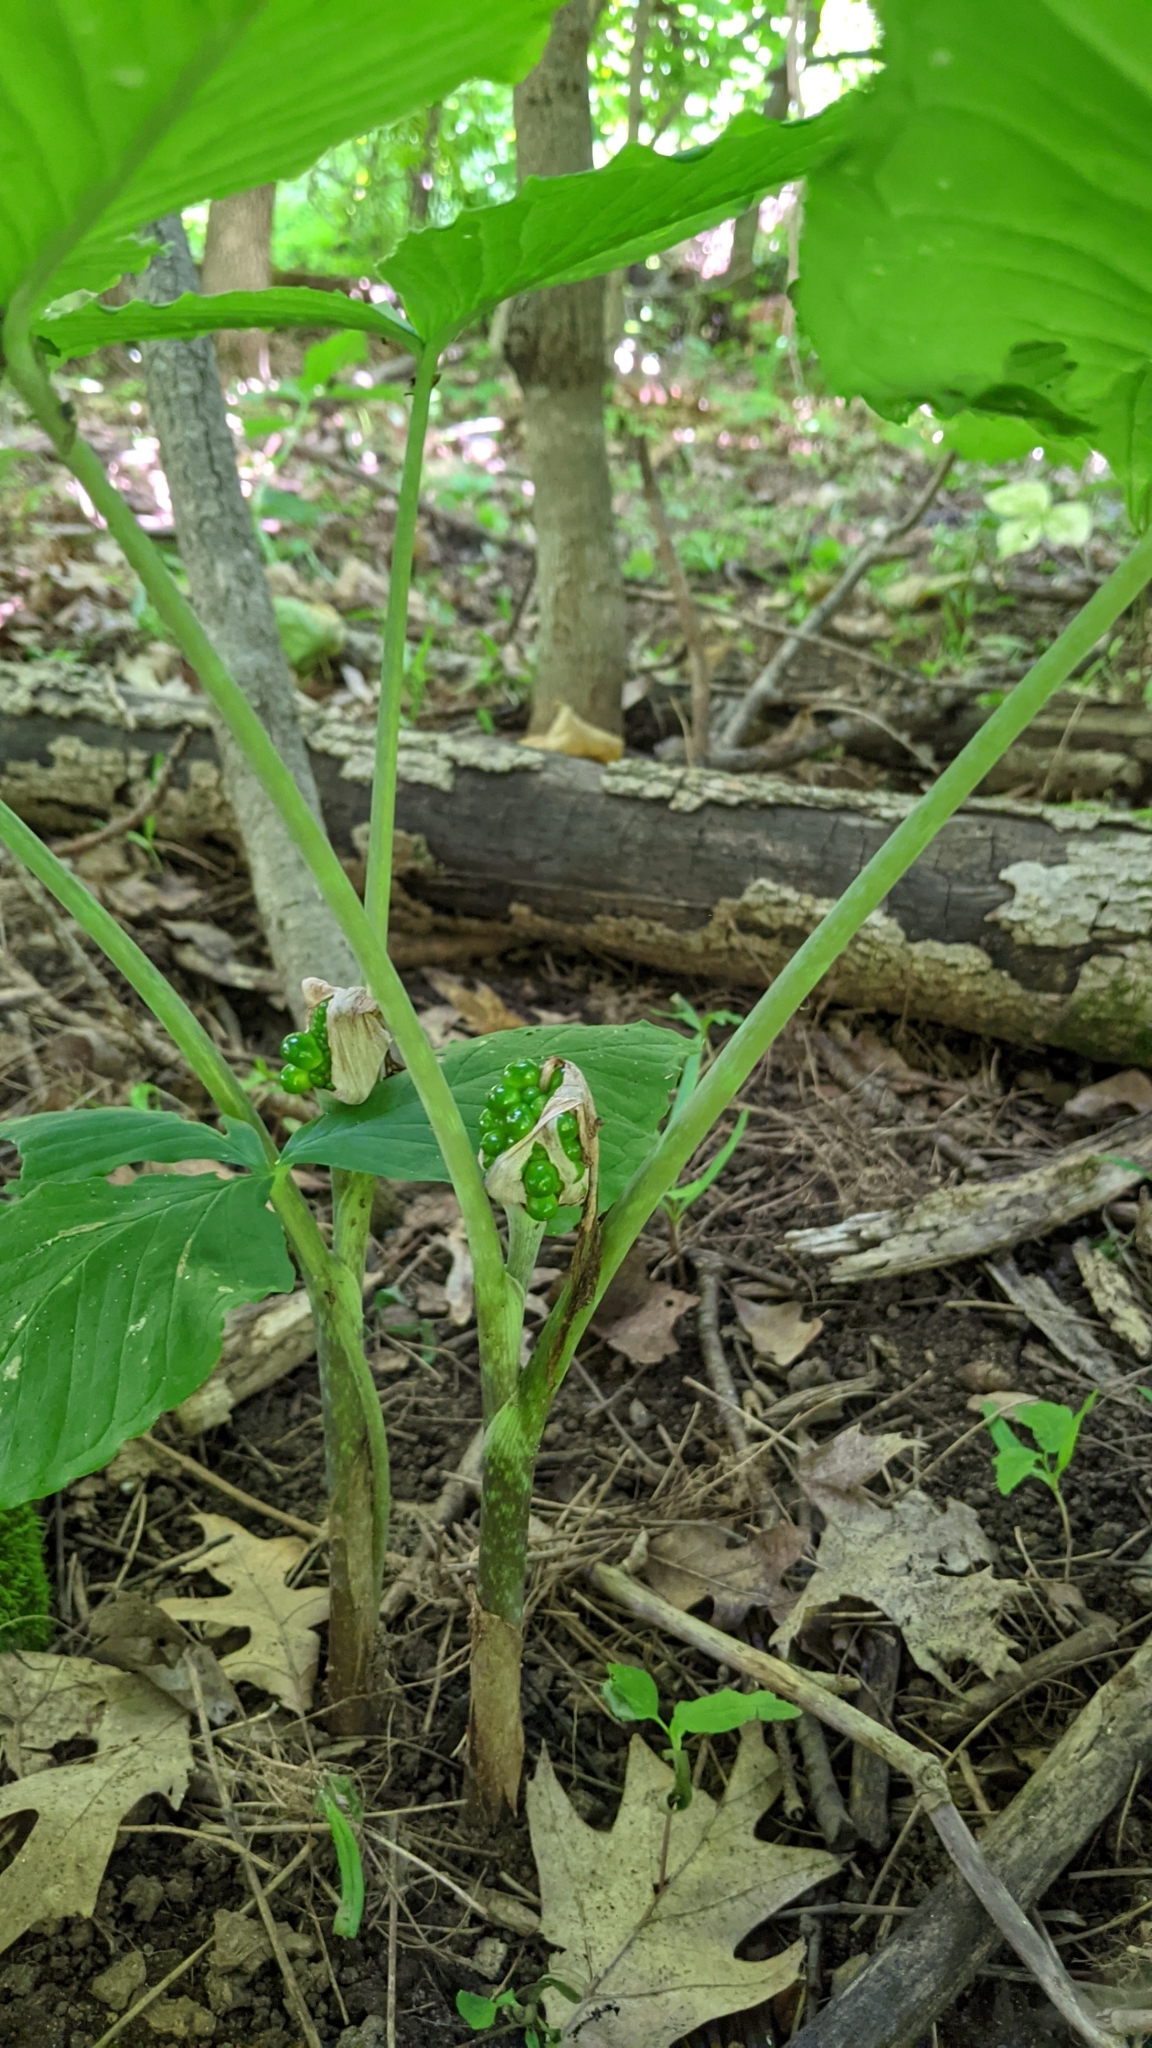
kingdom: Plantae
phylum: Tracheophyta
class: Liliopsida
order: Alismatales
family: Araceae
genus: Arisaema
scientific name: Arisaema triphyllum
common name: Jack-in-the-pulpit
